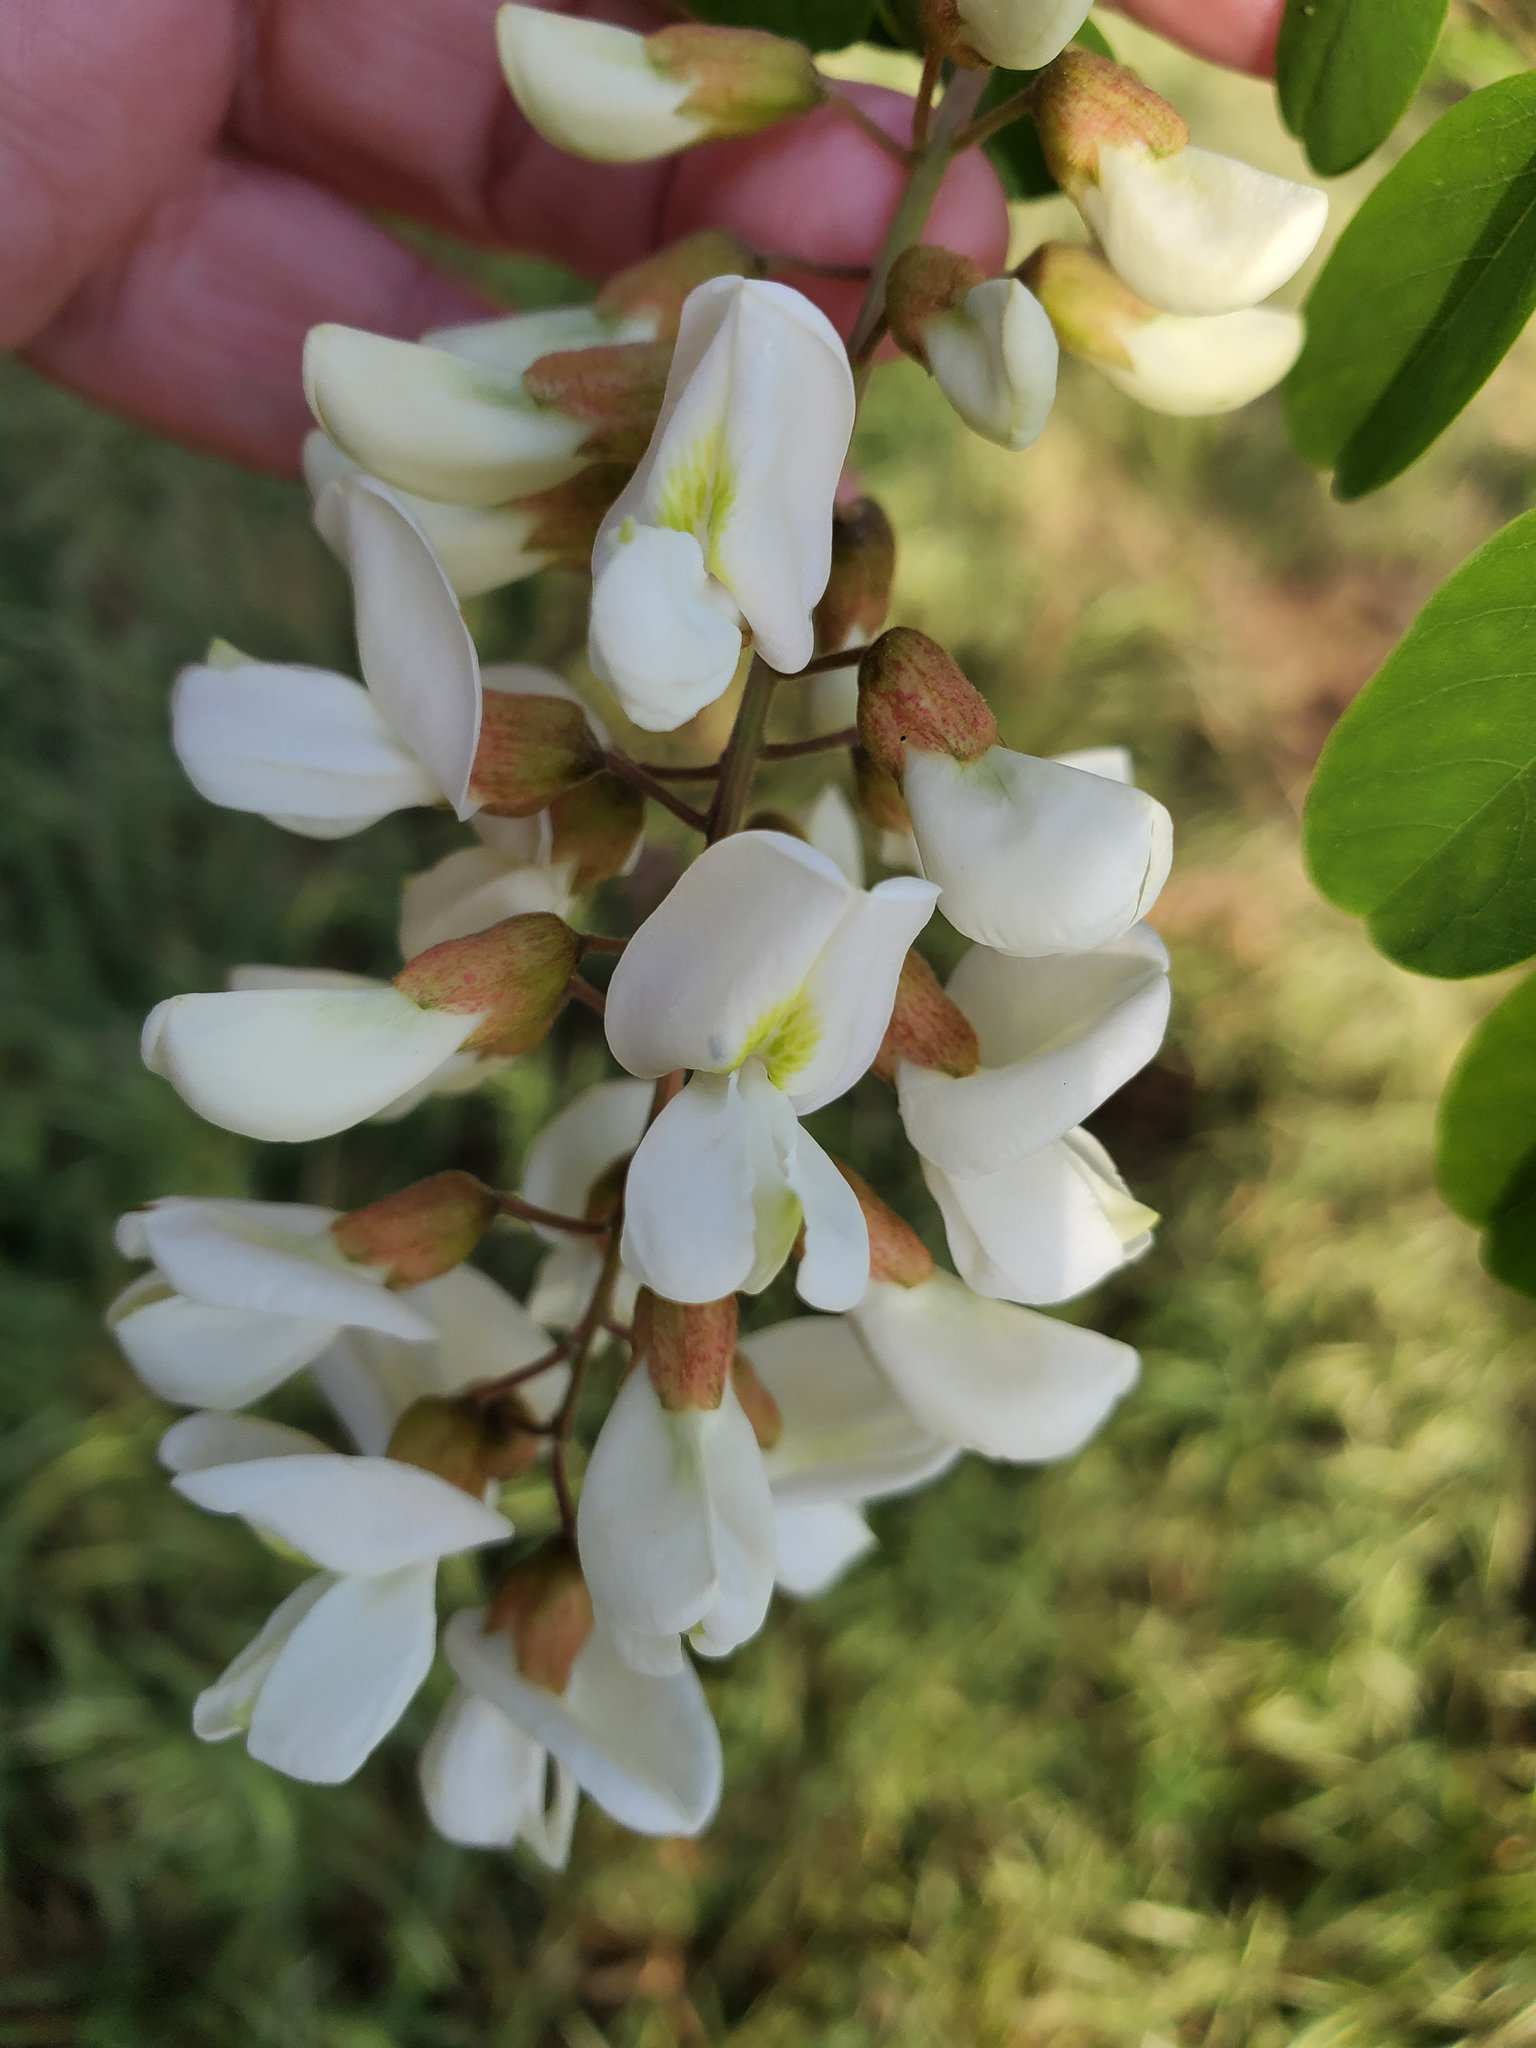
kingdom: Plantae
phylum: Tracheophyta
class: Magnoliopsida
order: Fabales
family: Fabaceae
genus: Robinia
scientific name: Robinia pseudoacacia
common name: Black locust
